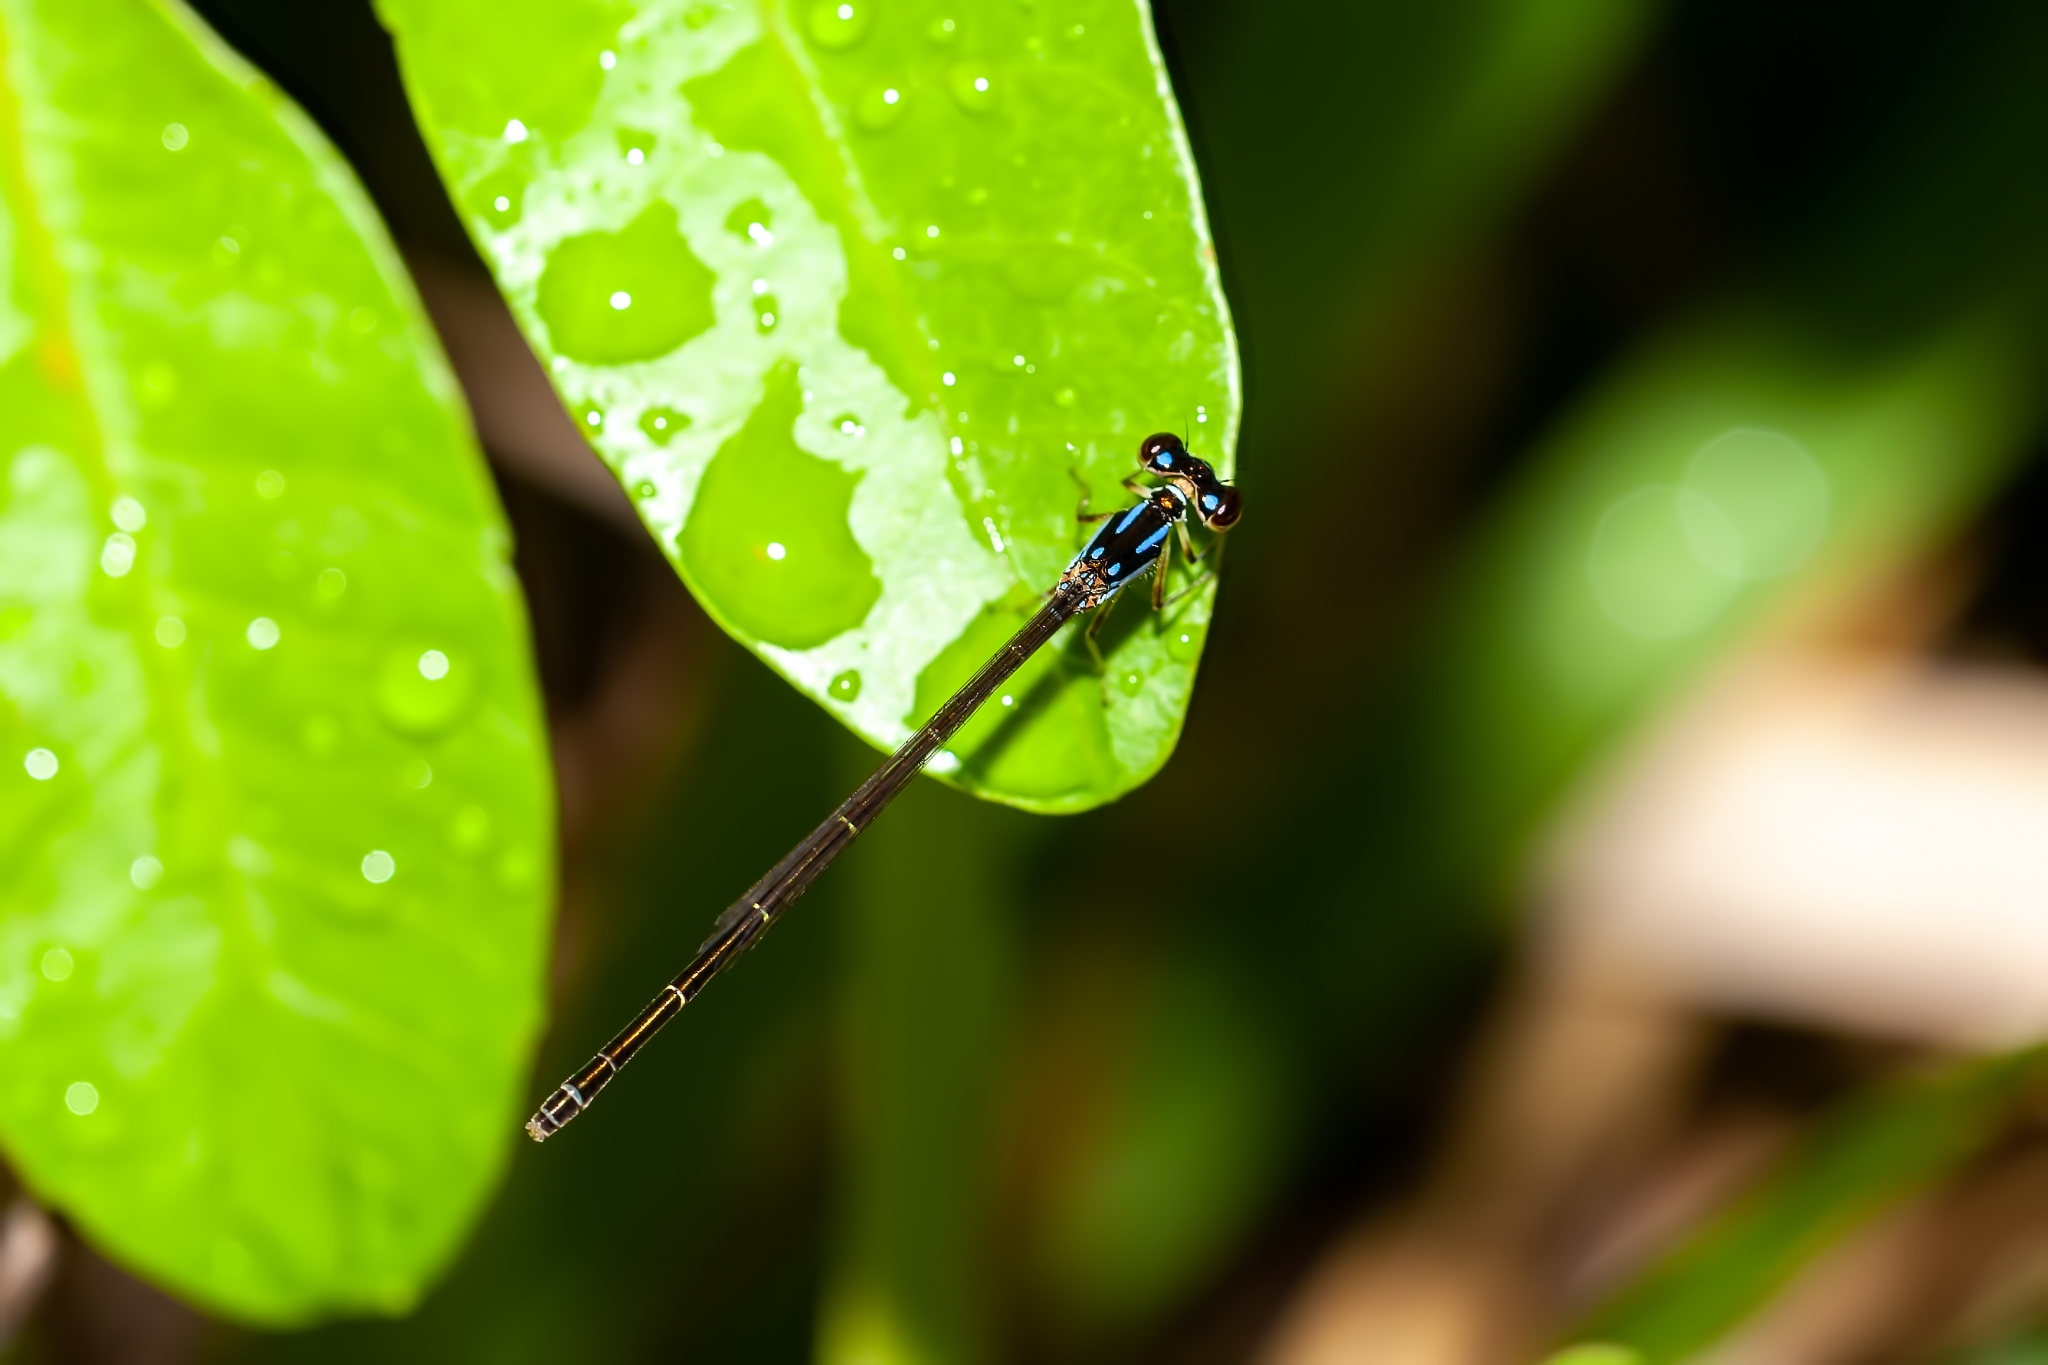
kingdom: Animalia
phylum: Arthropoda
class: Insecta
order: Odonata
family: Coenagrionidae
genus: Ischnura
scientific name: Ischnura posita
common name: Fragile forktail
